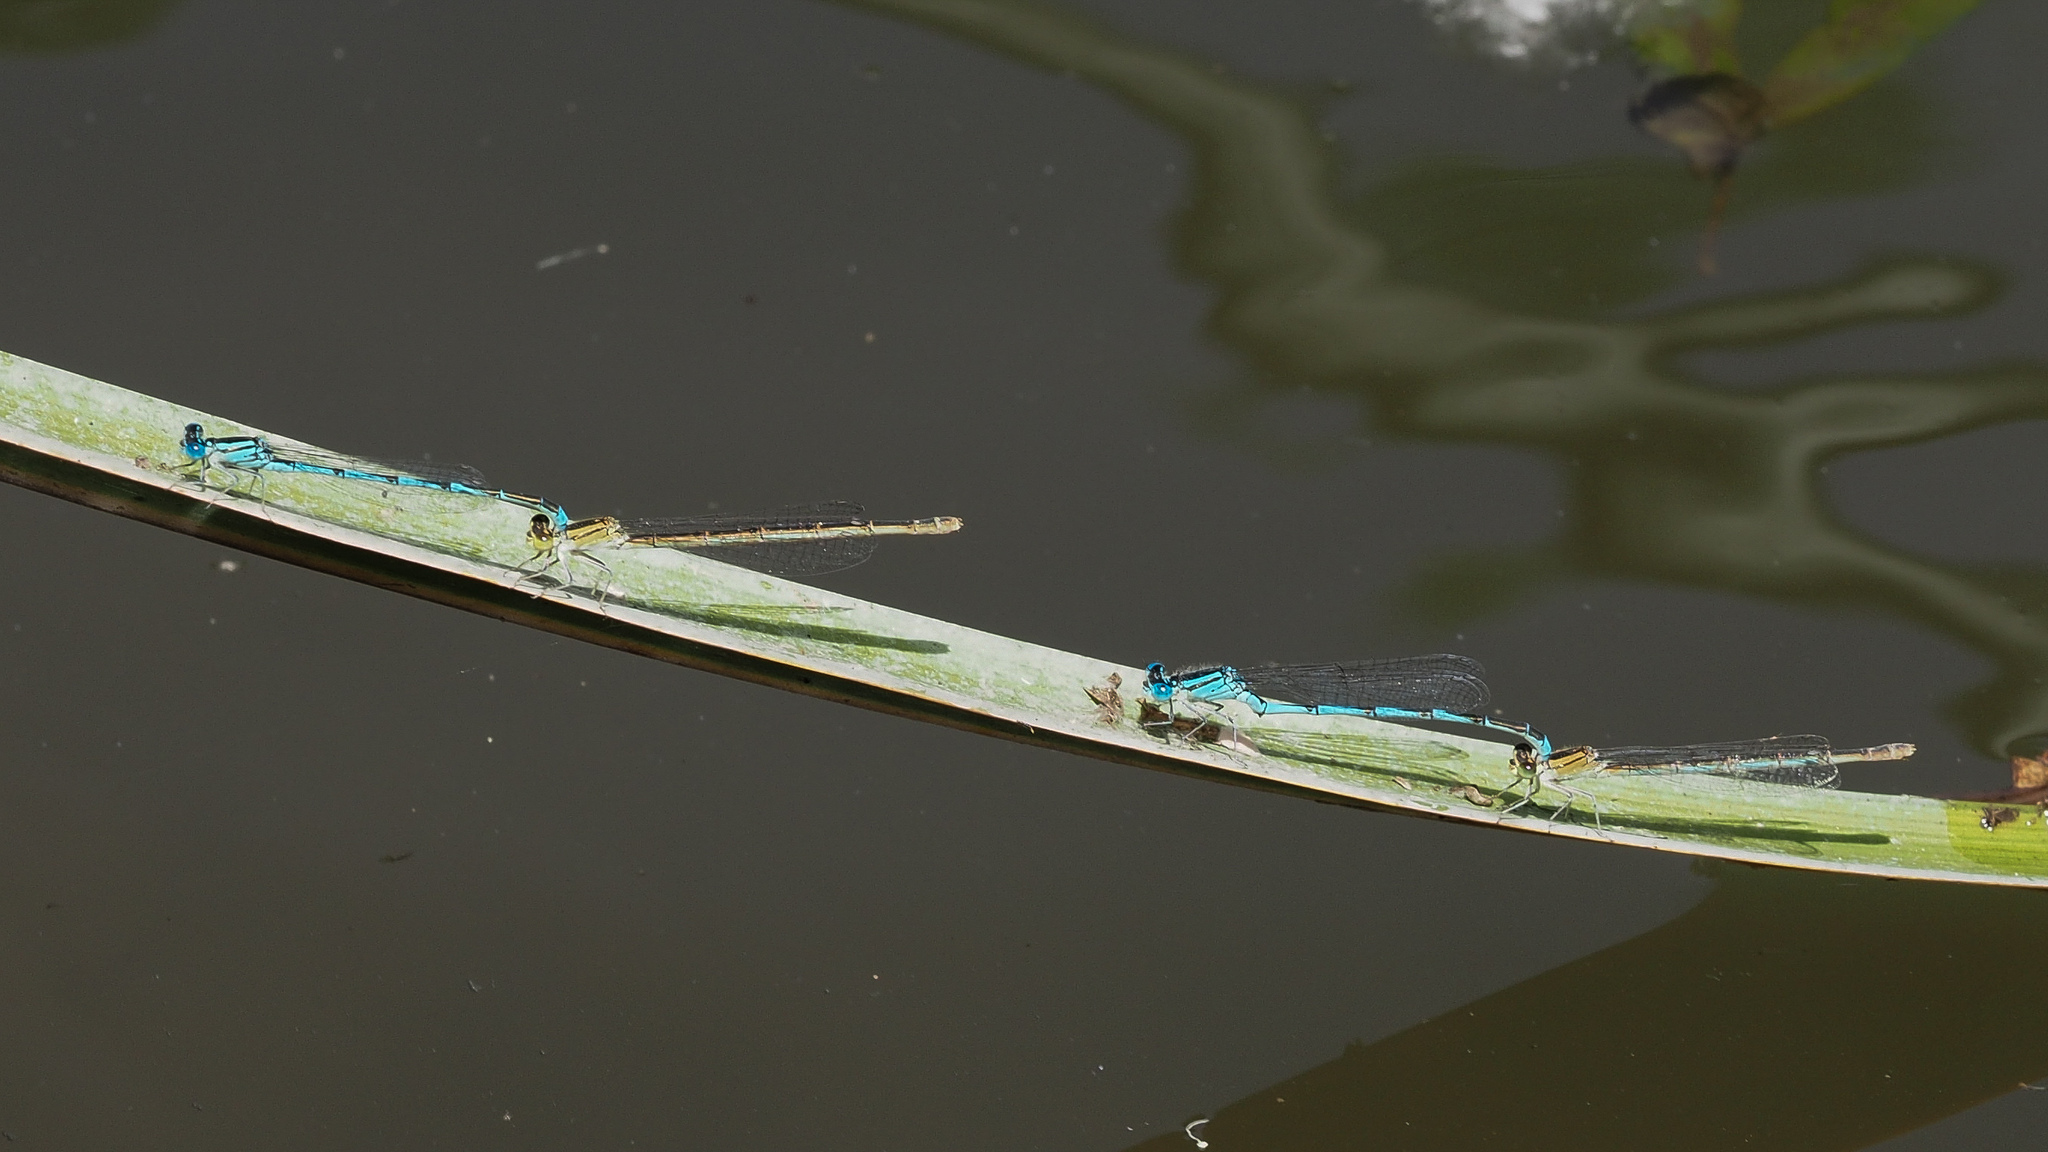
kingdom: Animalia
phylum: Arthropoda
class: Insecta
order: Odonata
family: Coenagrionidae
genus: Erythromma
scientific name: Erythromma lindenii
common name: Blue-eye
